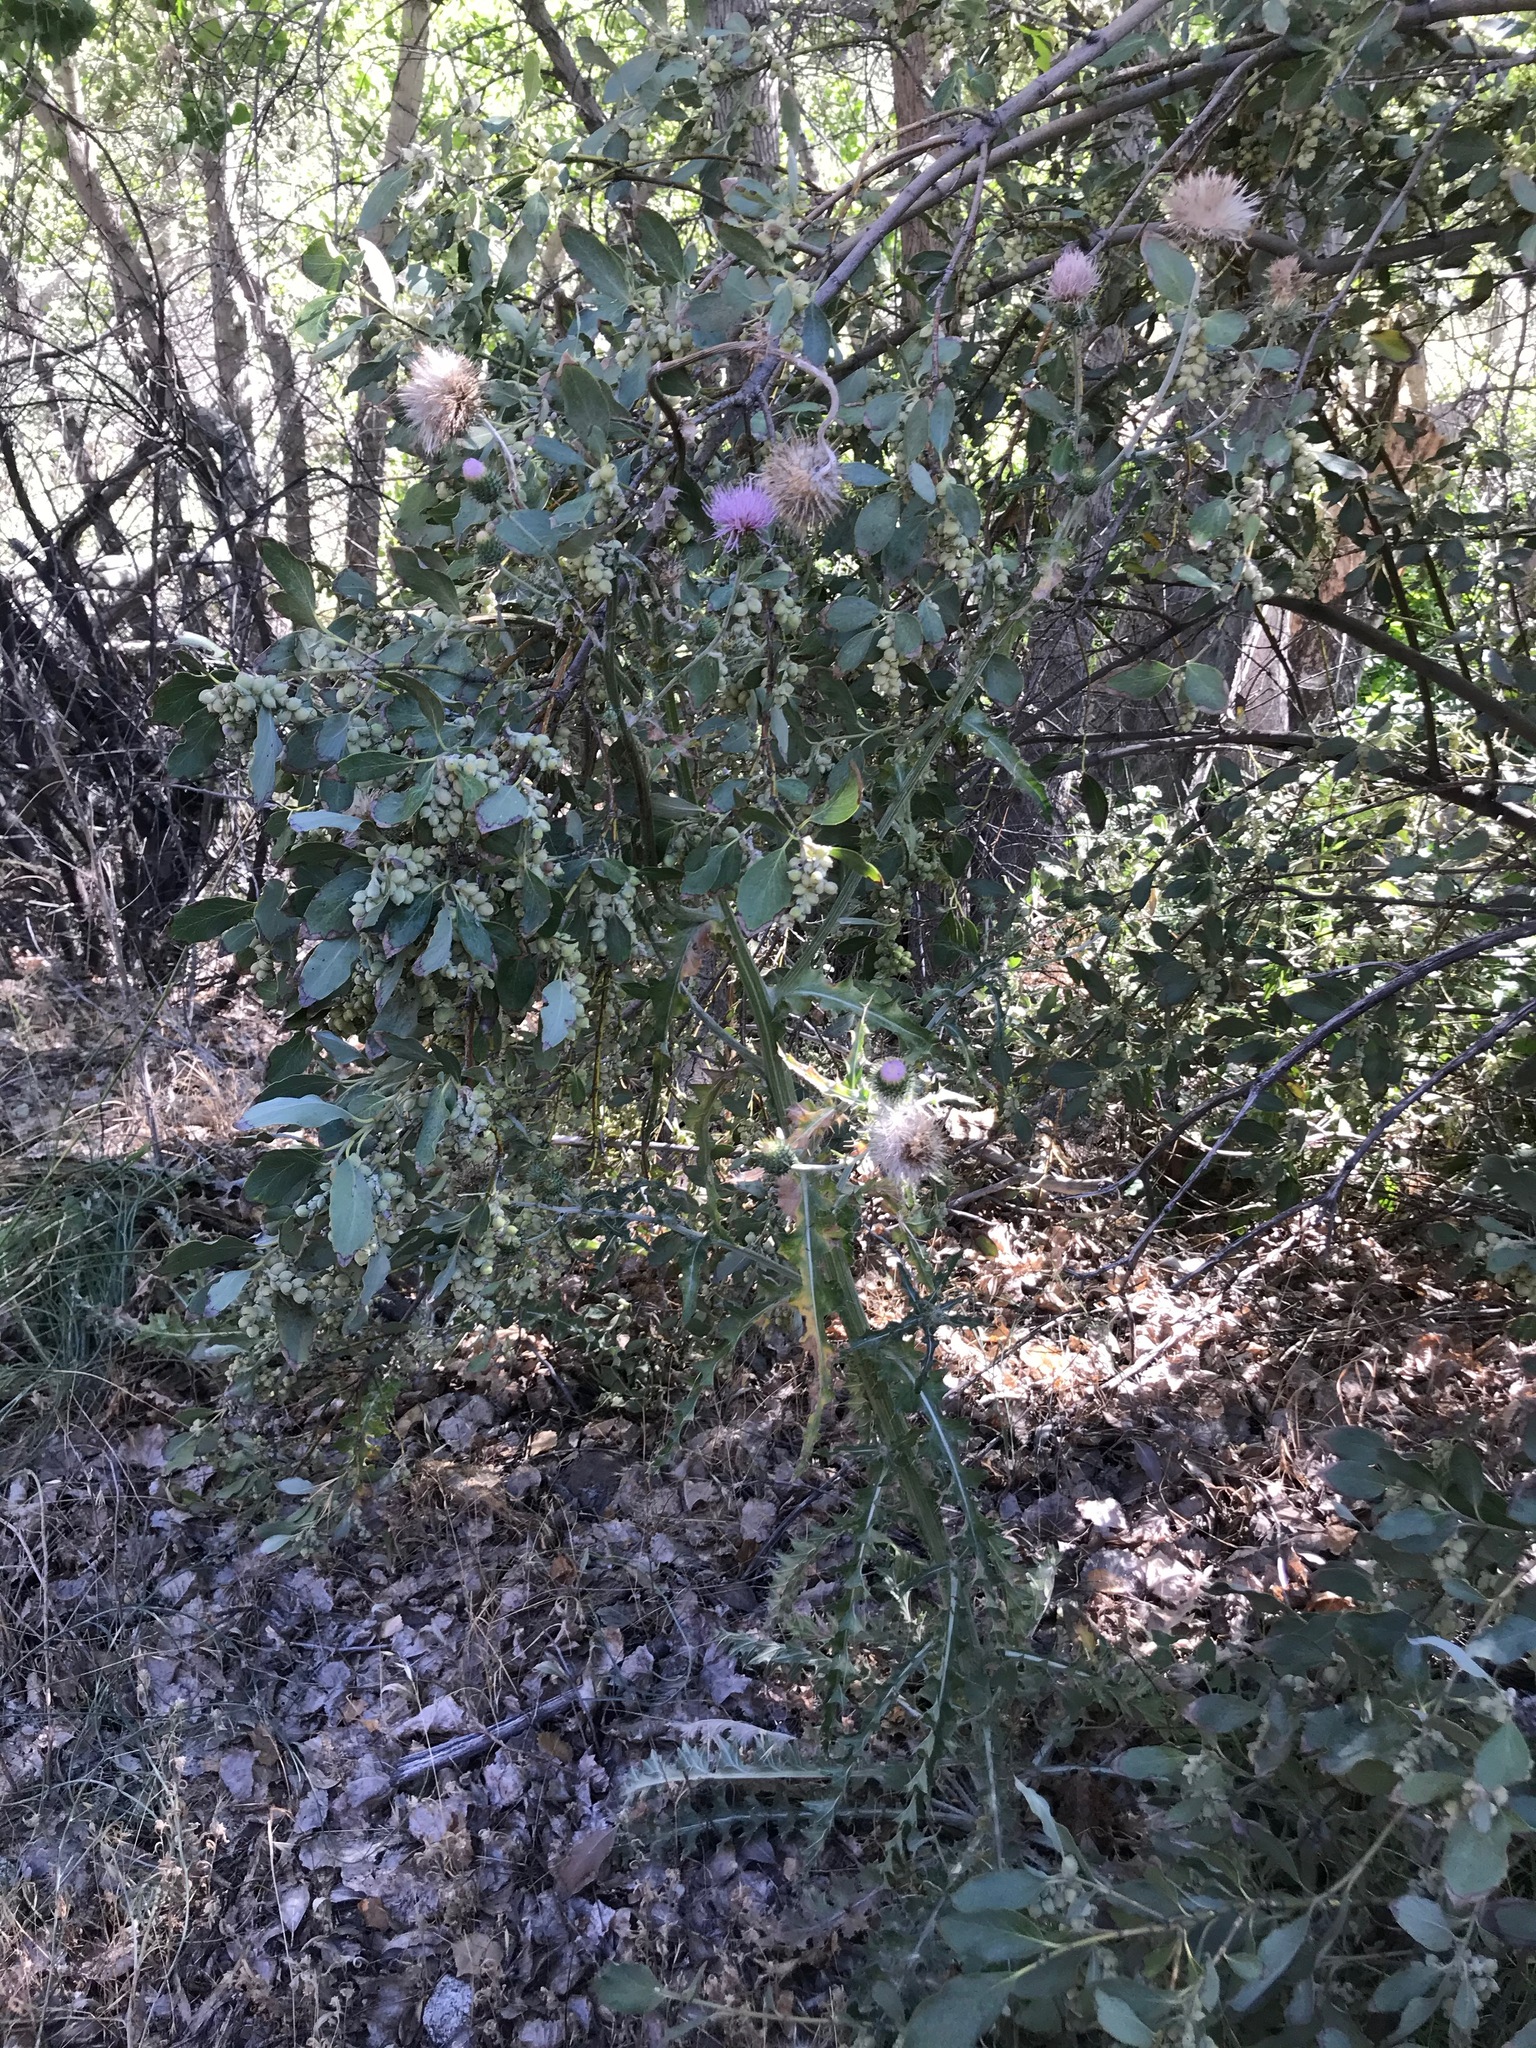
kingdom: Plantae
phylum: Tracheophyta
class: Magnoliopsida
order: Asterales
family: Asteraceae
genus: Cirsium
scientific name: Cirsium occidentale
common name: Western thistle
